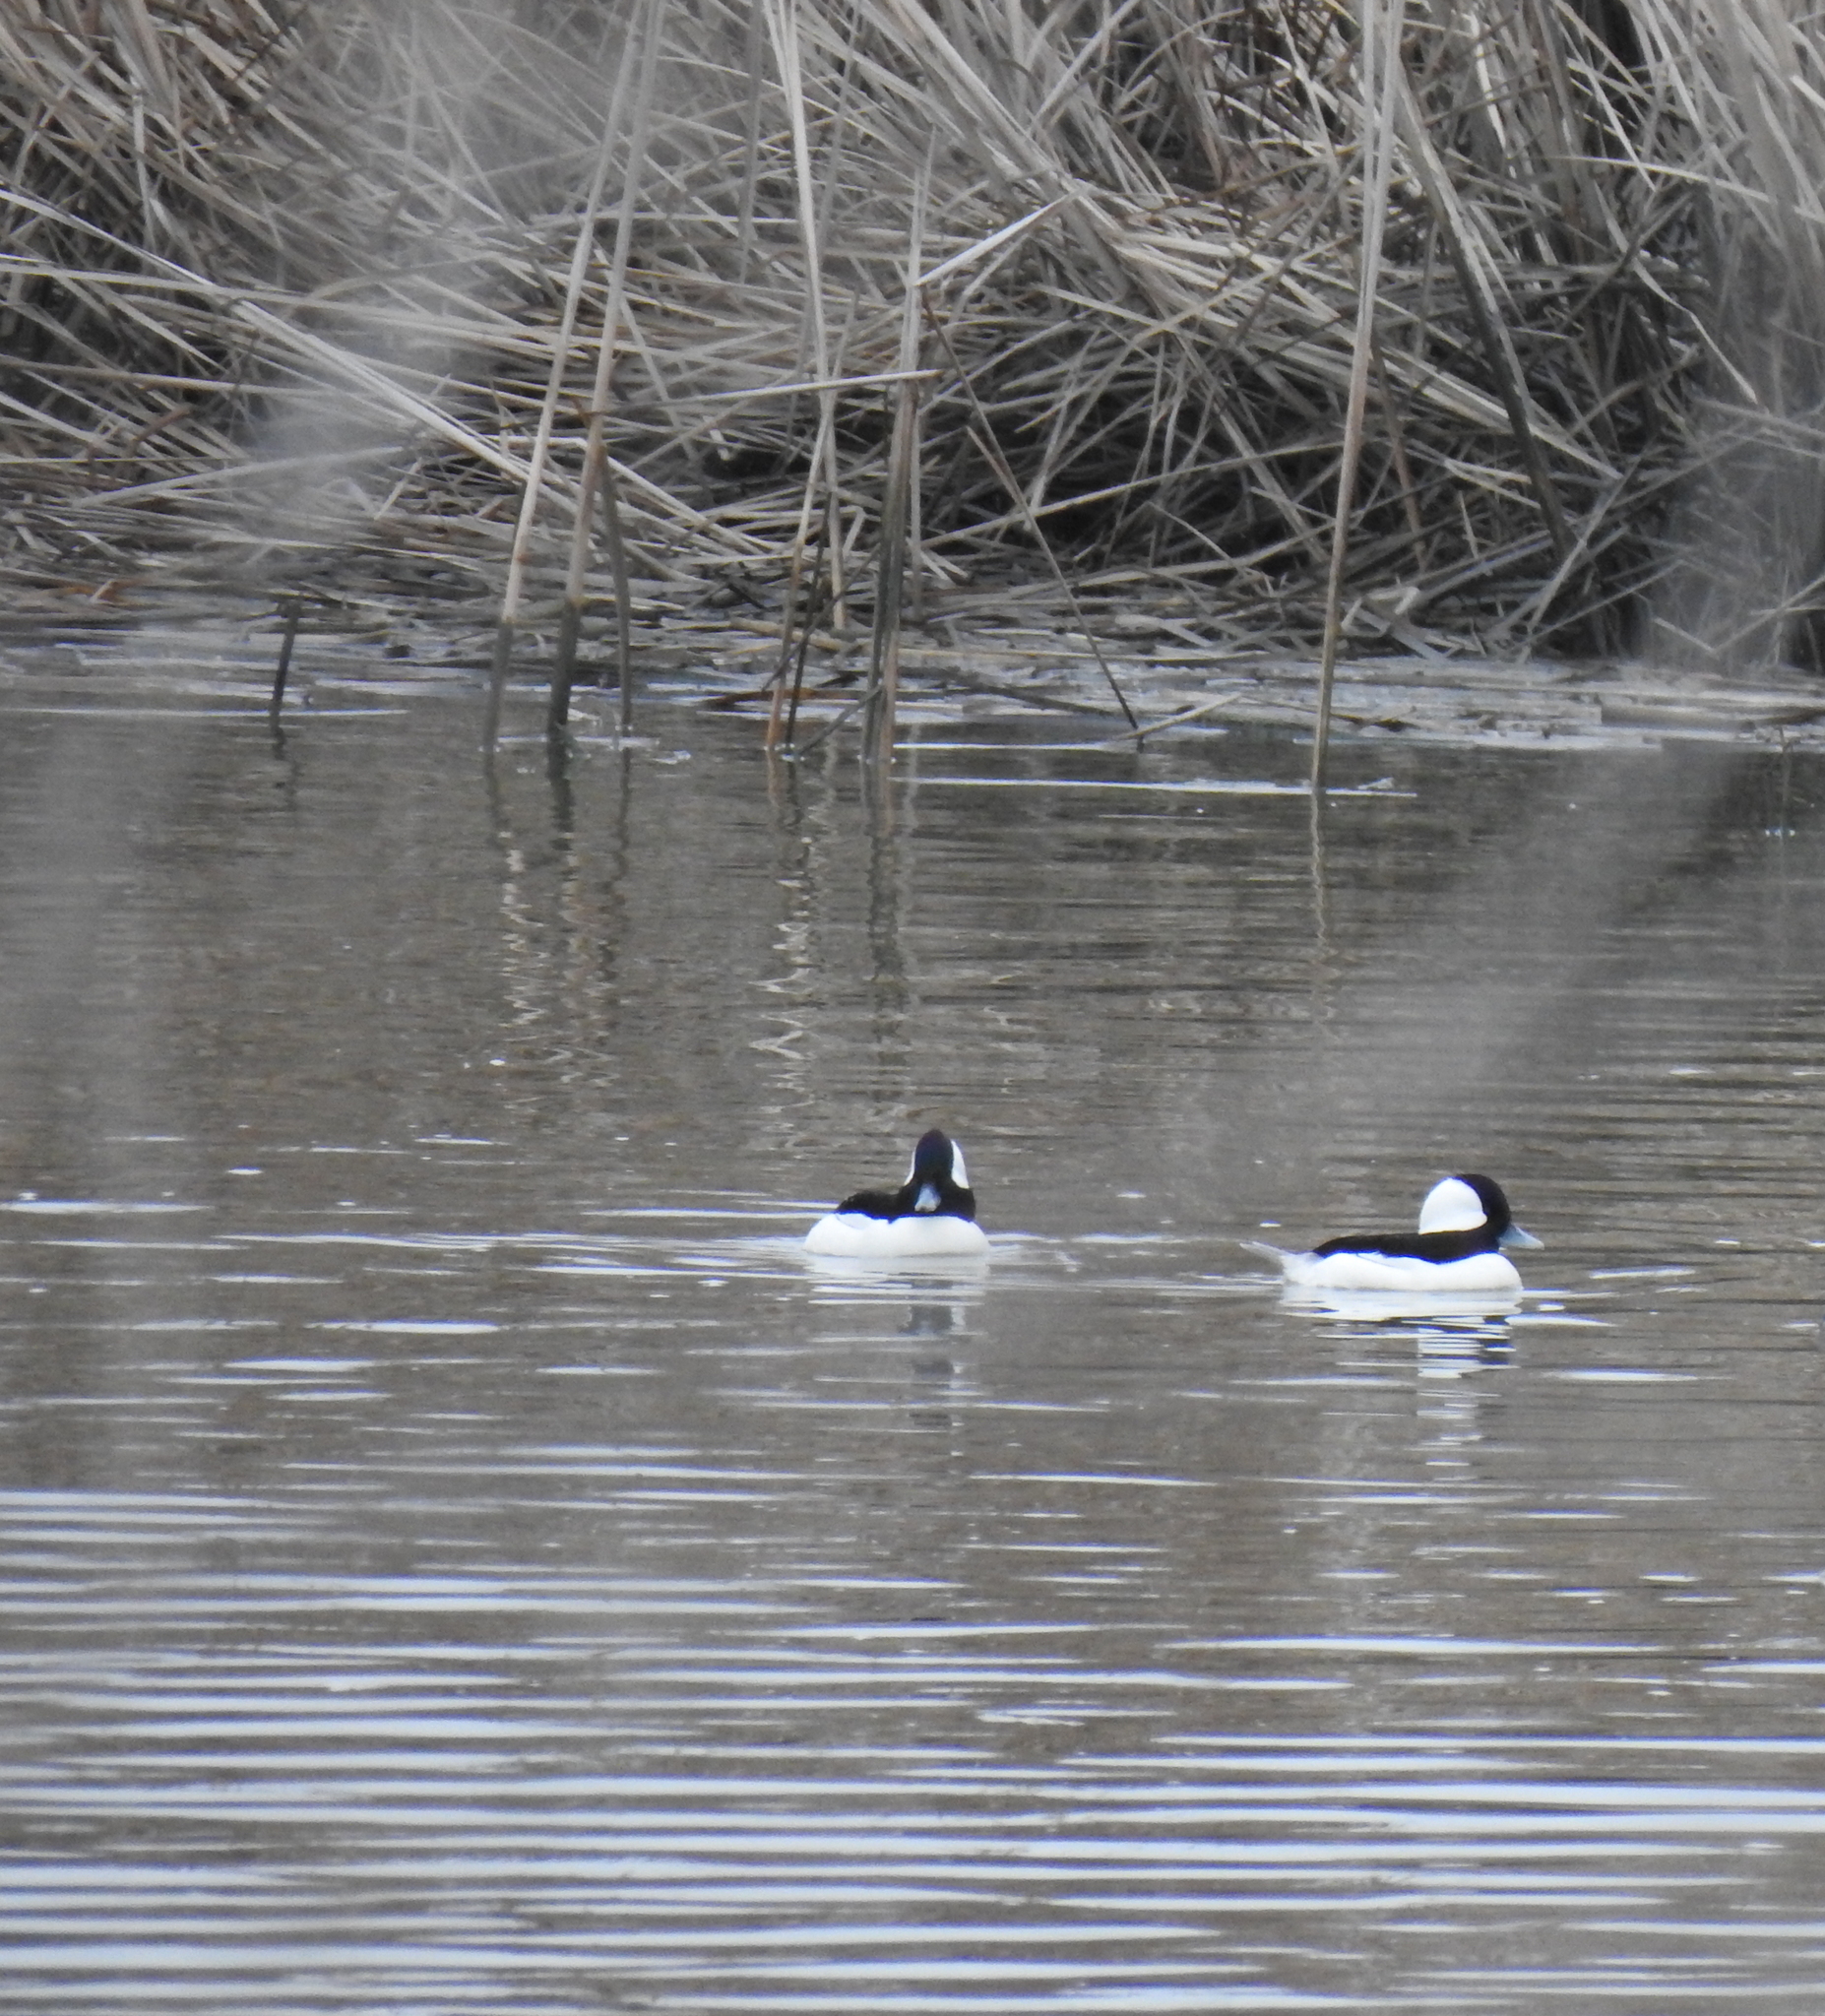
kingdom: Animalia
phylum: Chordata
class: Aves
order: Anseriformes
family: Anatidae
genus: Bucephala
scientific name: Bucephala albeola
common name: Bufflehead
